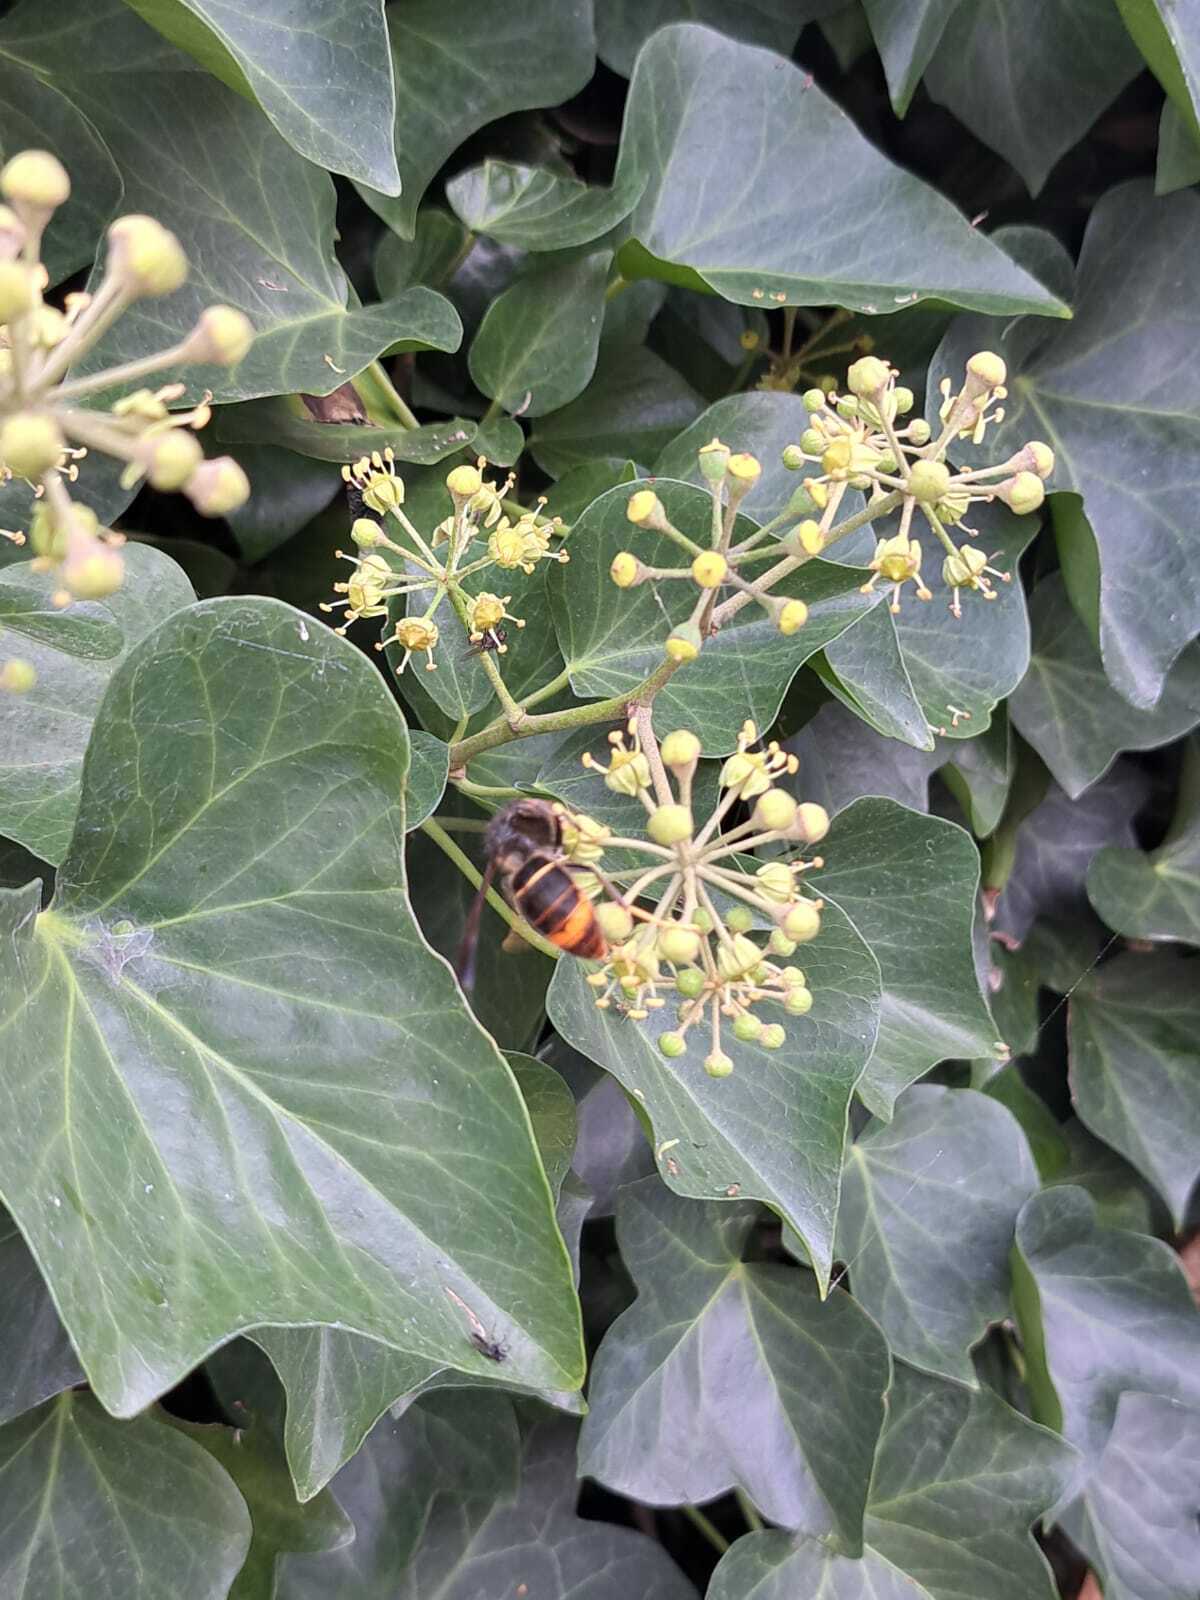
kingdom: Animalia
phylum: Arthropoda
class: Insecta
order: Hymenoptera
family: Vespidae
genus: Vespa
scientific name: Vespa velutina
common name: Asian hornet
